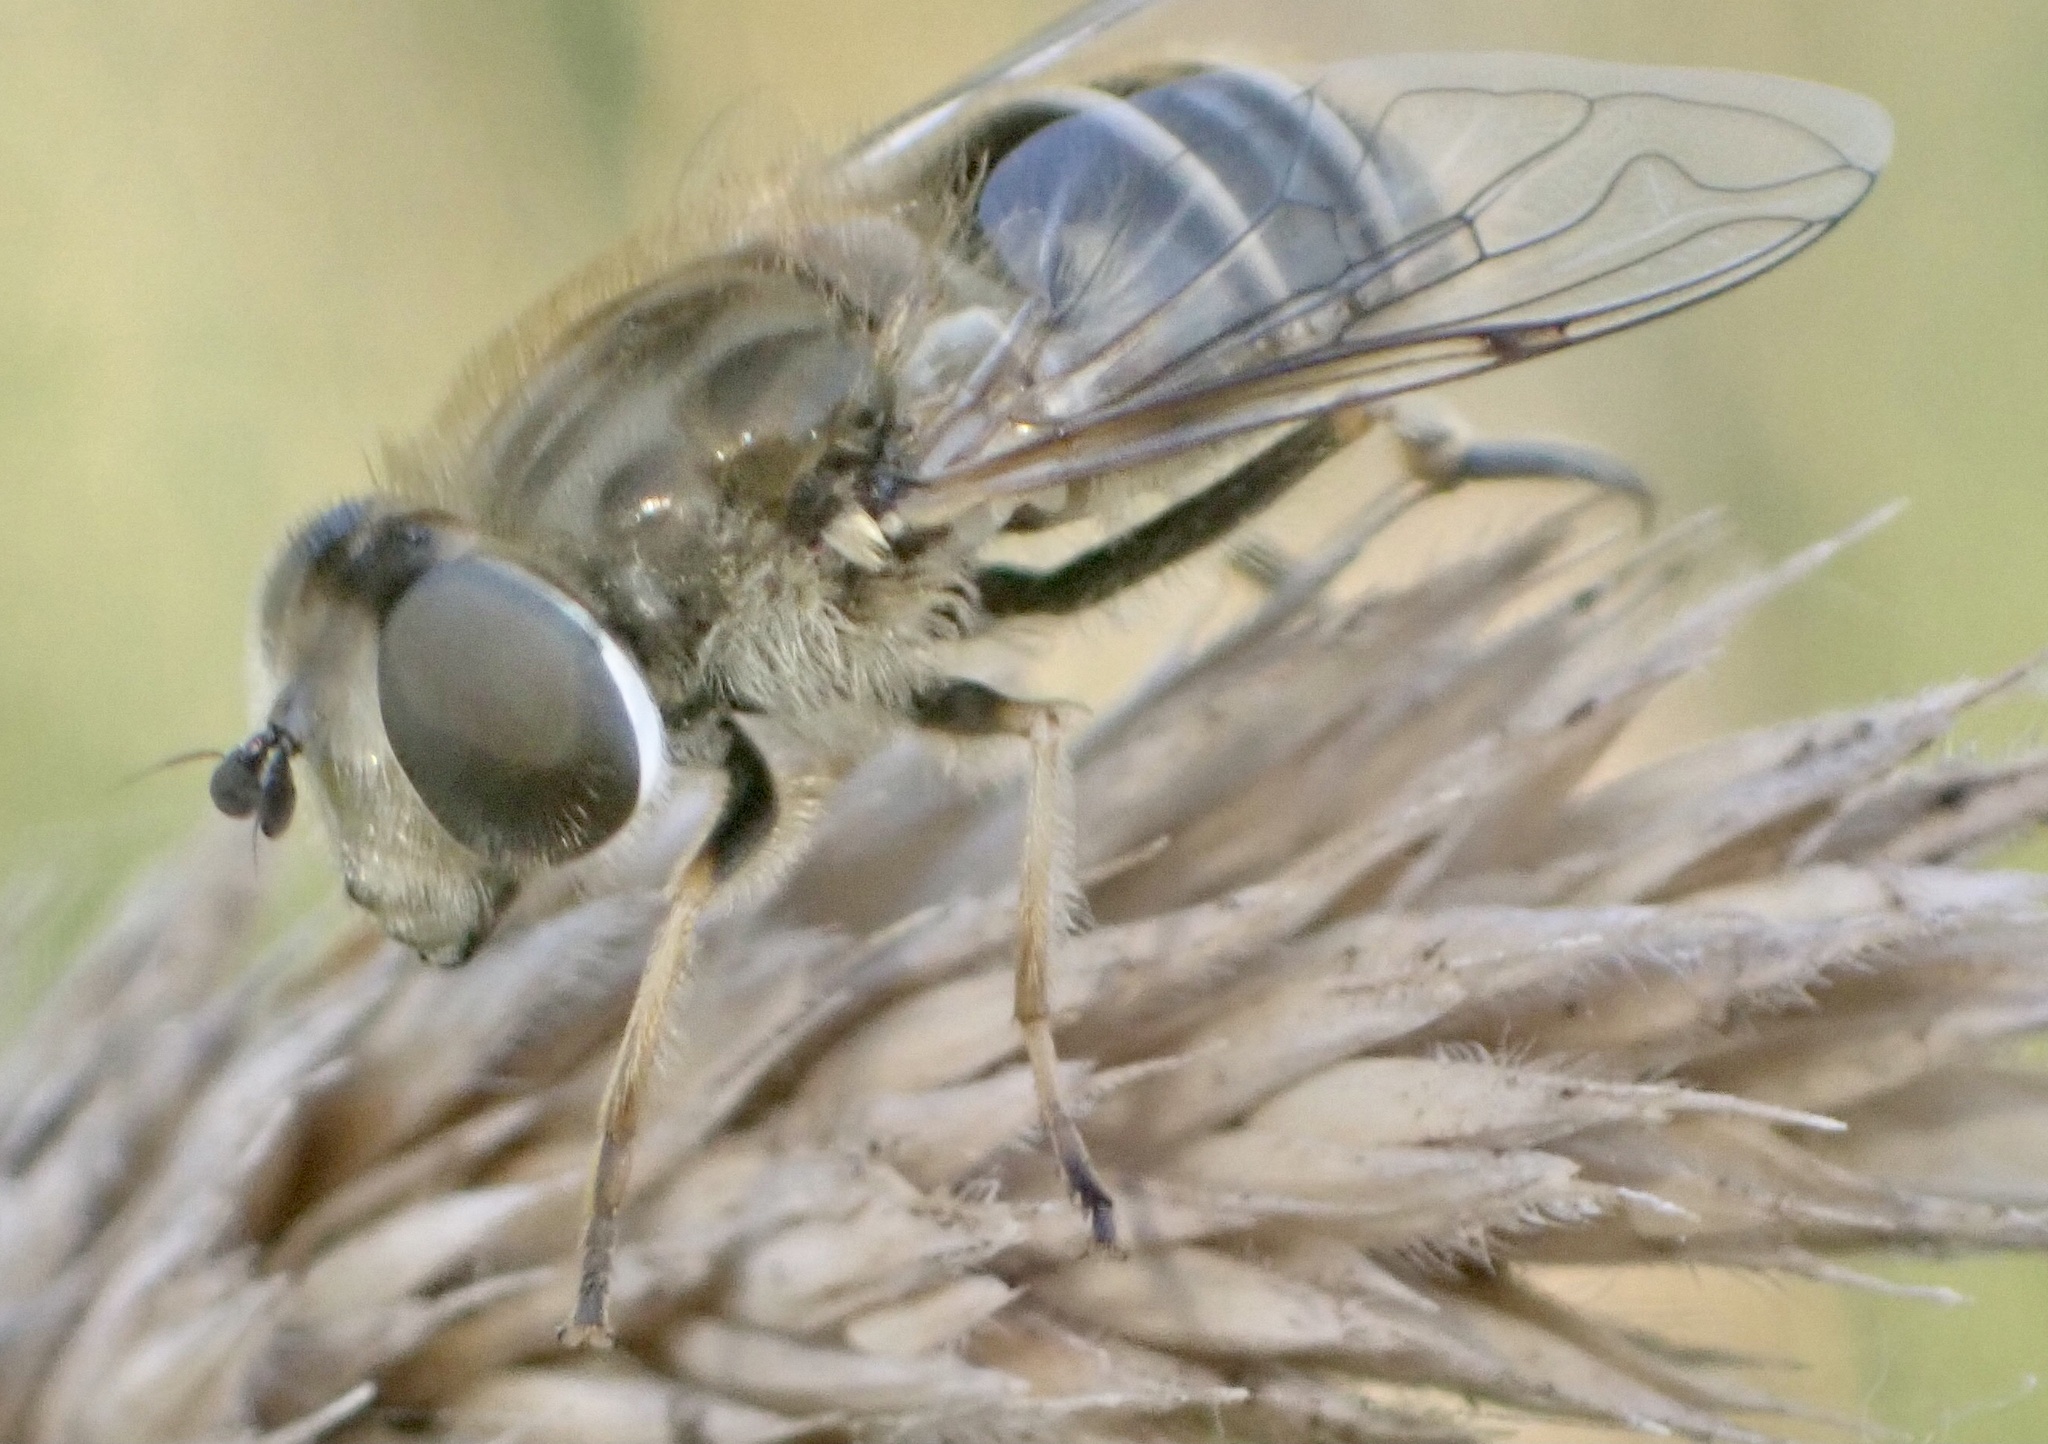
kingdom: Animalia
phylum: Arthropoda
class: Insecta
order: Diptera
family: Syrphidae
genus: Eristalis
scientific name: Eristalis abusivus
